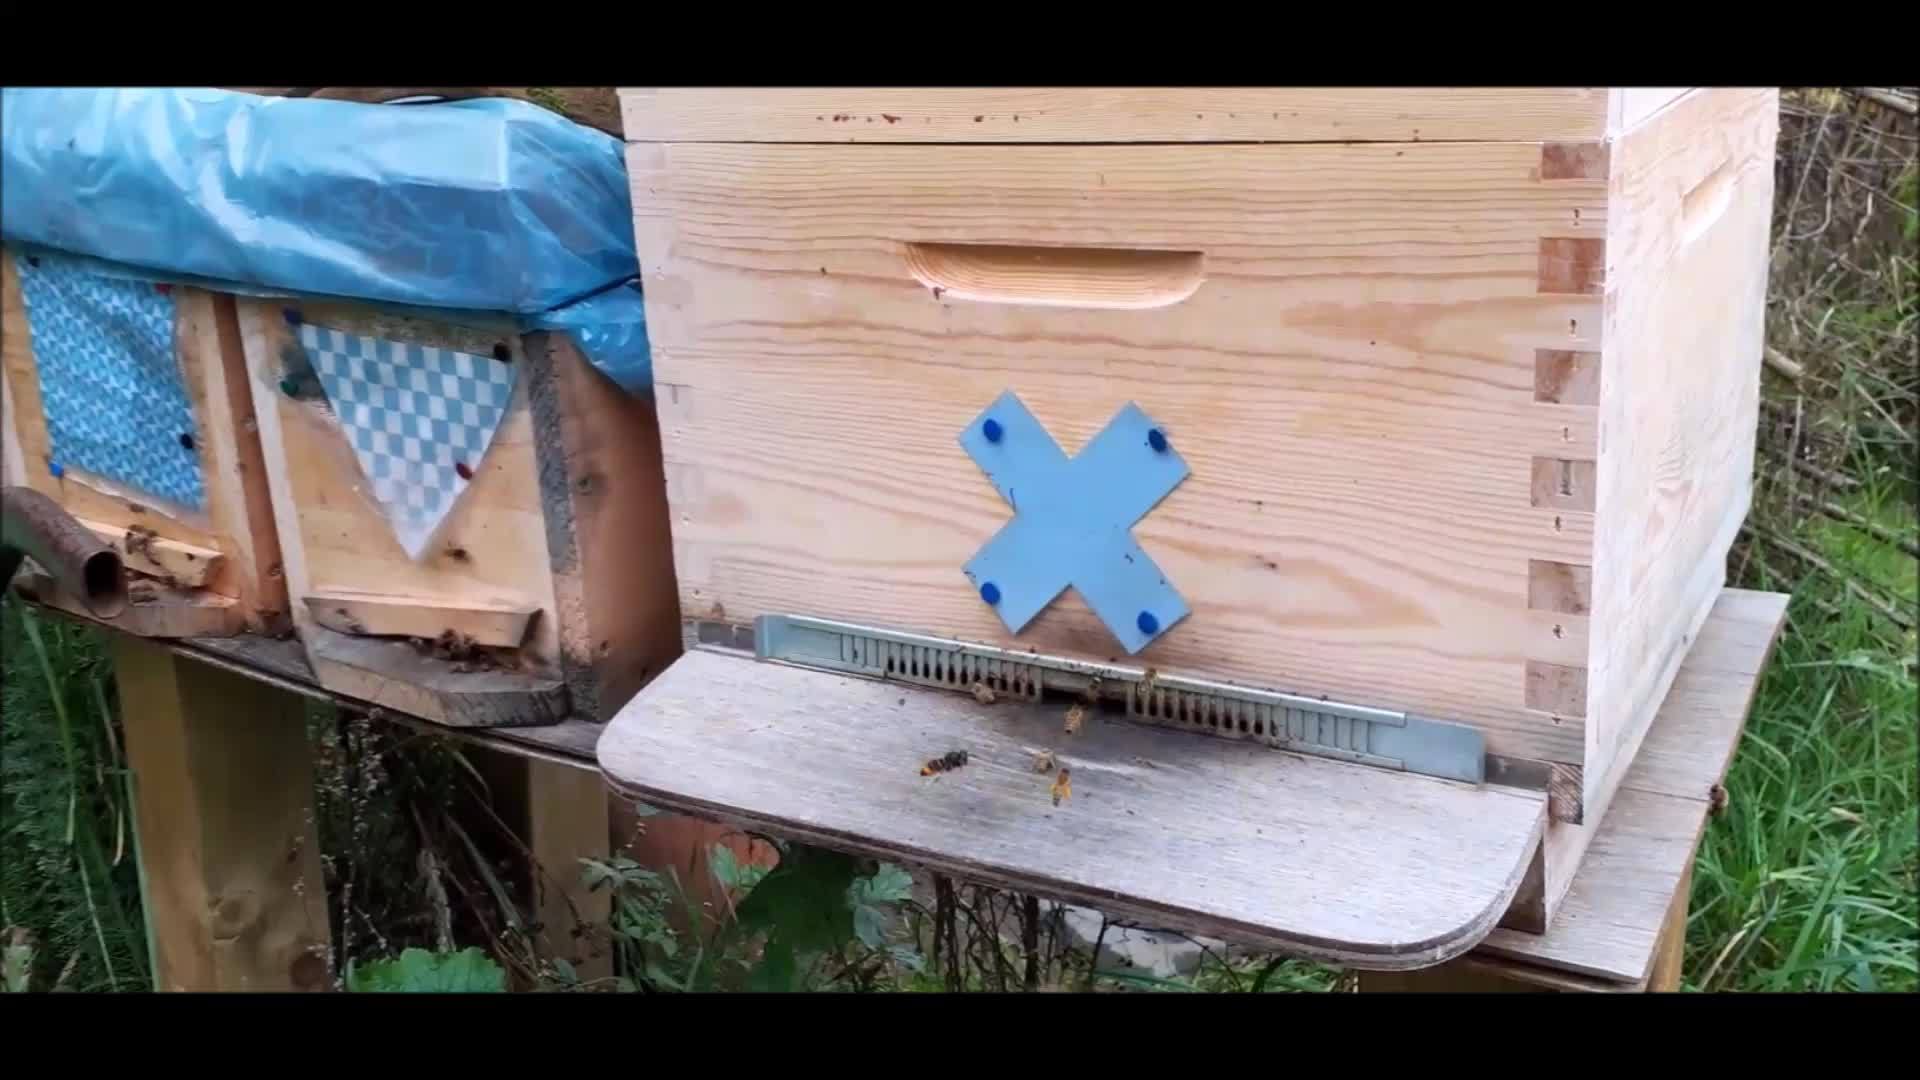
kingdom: Animalia
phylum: Arthropoda
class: Insecta
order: Hymenoptera
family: Vespidae
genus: Vespa
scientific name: Vespa velutina
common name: Asian hornet
